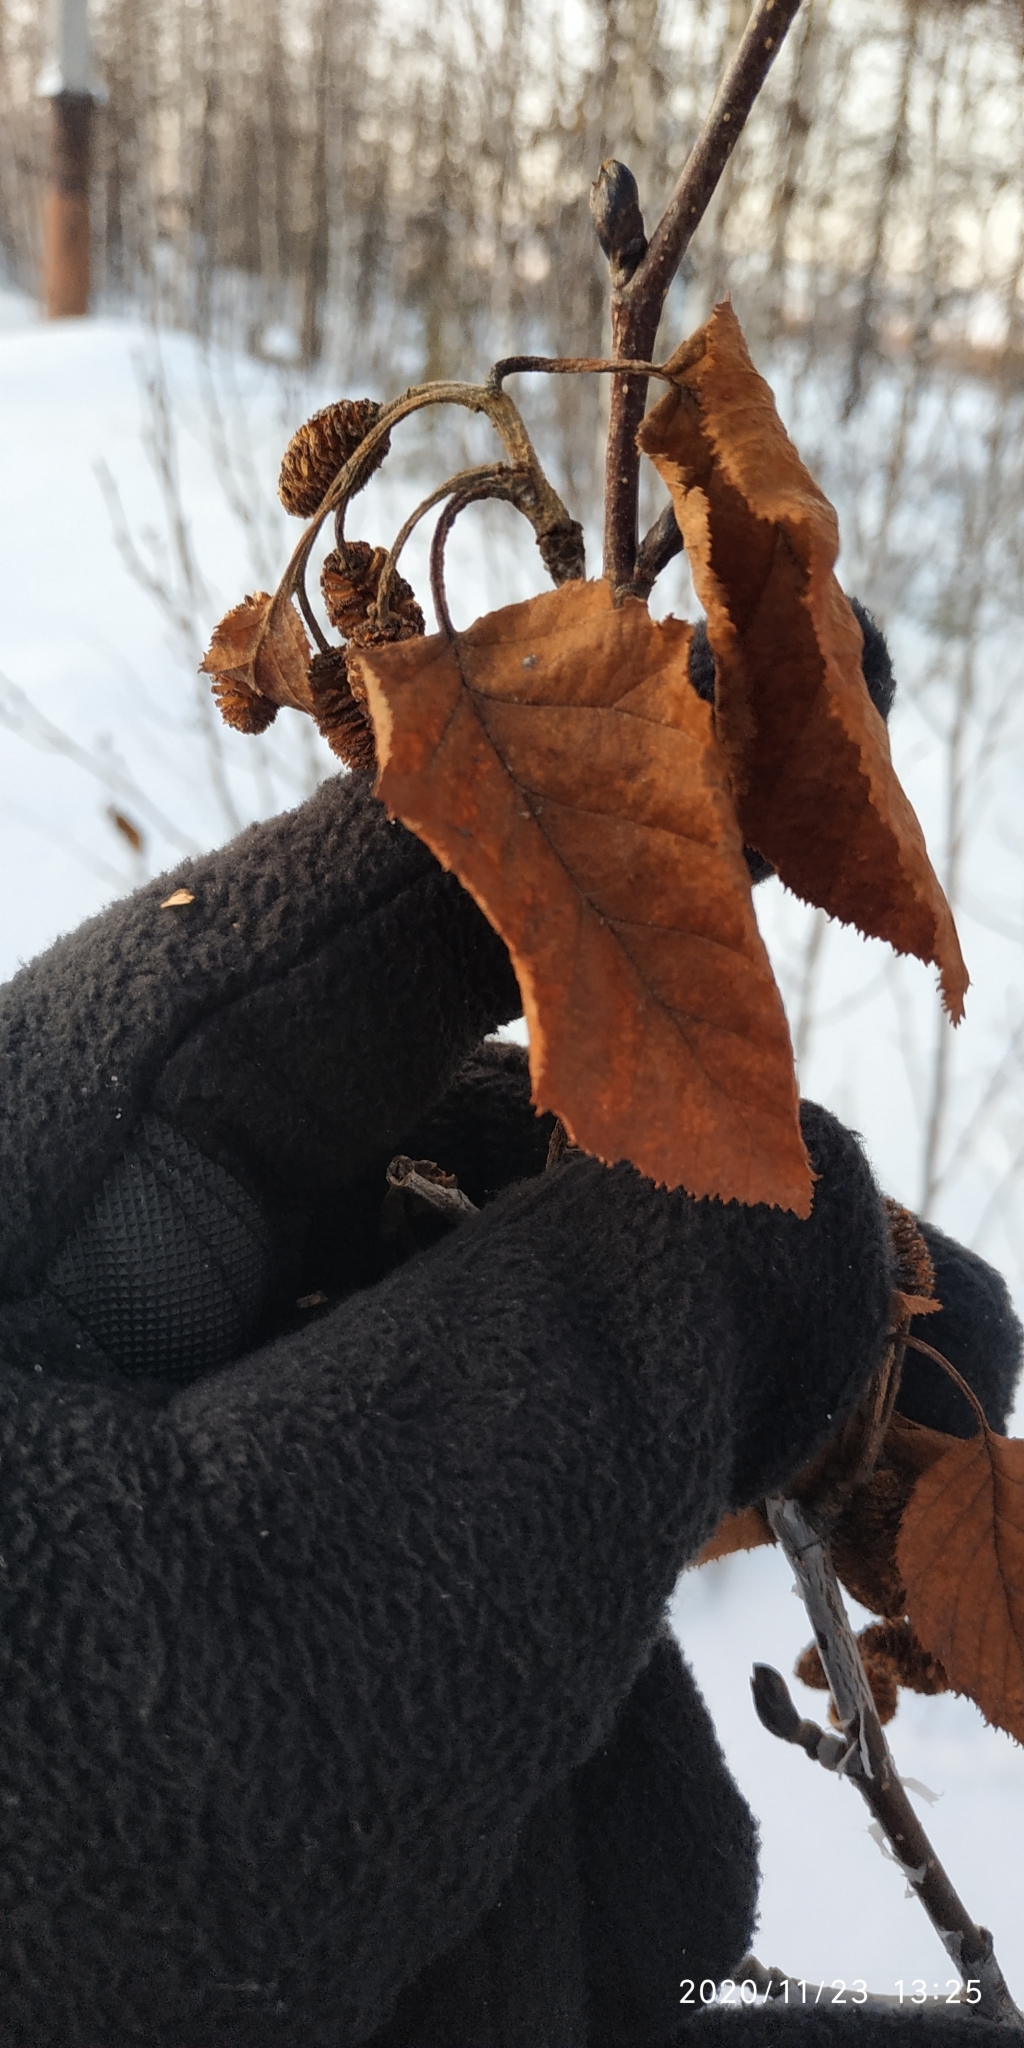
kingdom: Plantae
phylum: Tracheophyta
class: Magnoliopsida
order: Fagales
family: Betulaceae
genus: Alnus
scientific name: Alnus alnobetula
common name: Green alder
